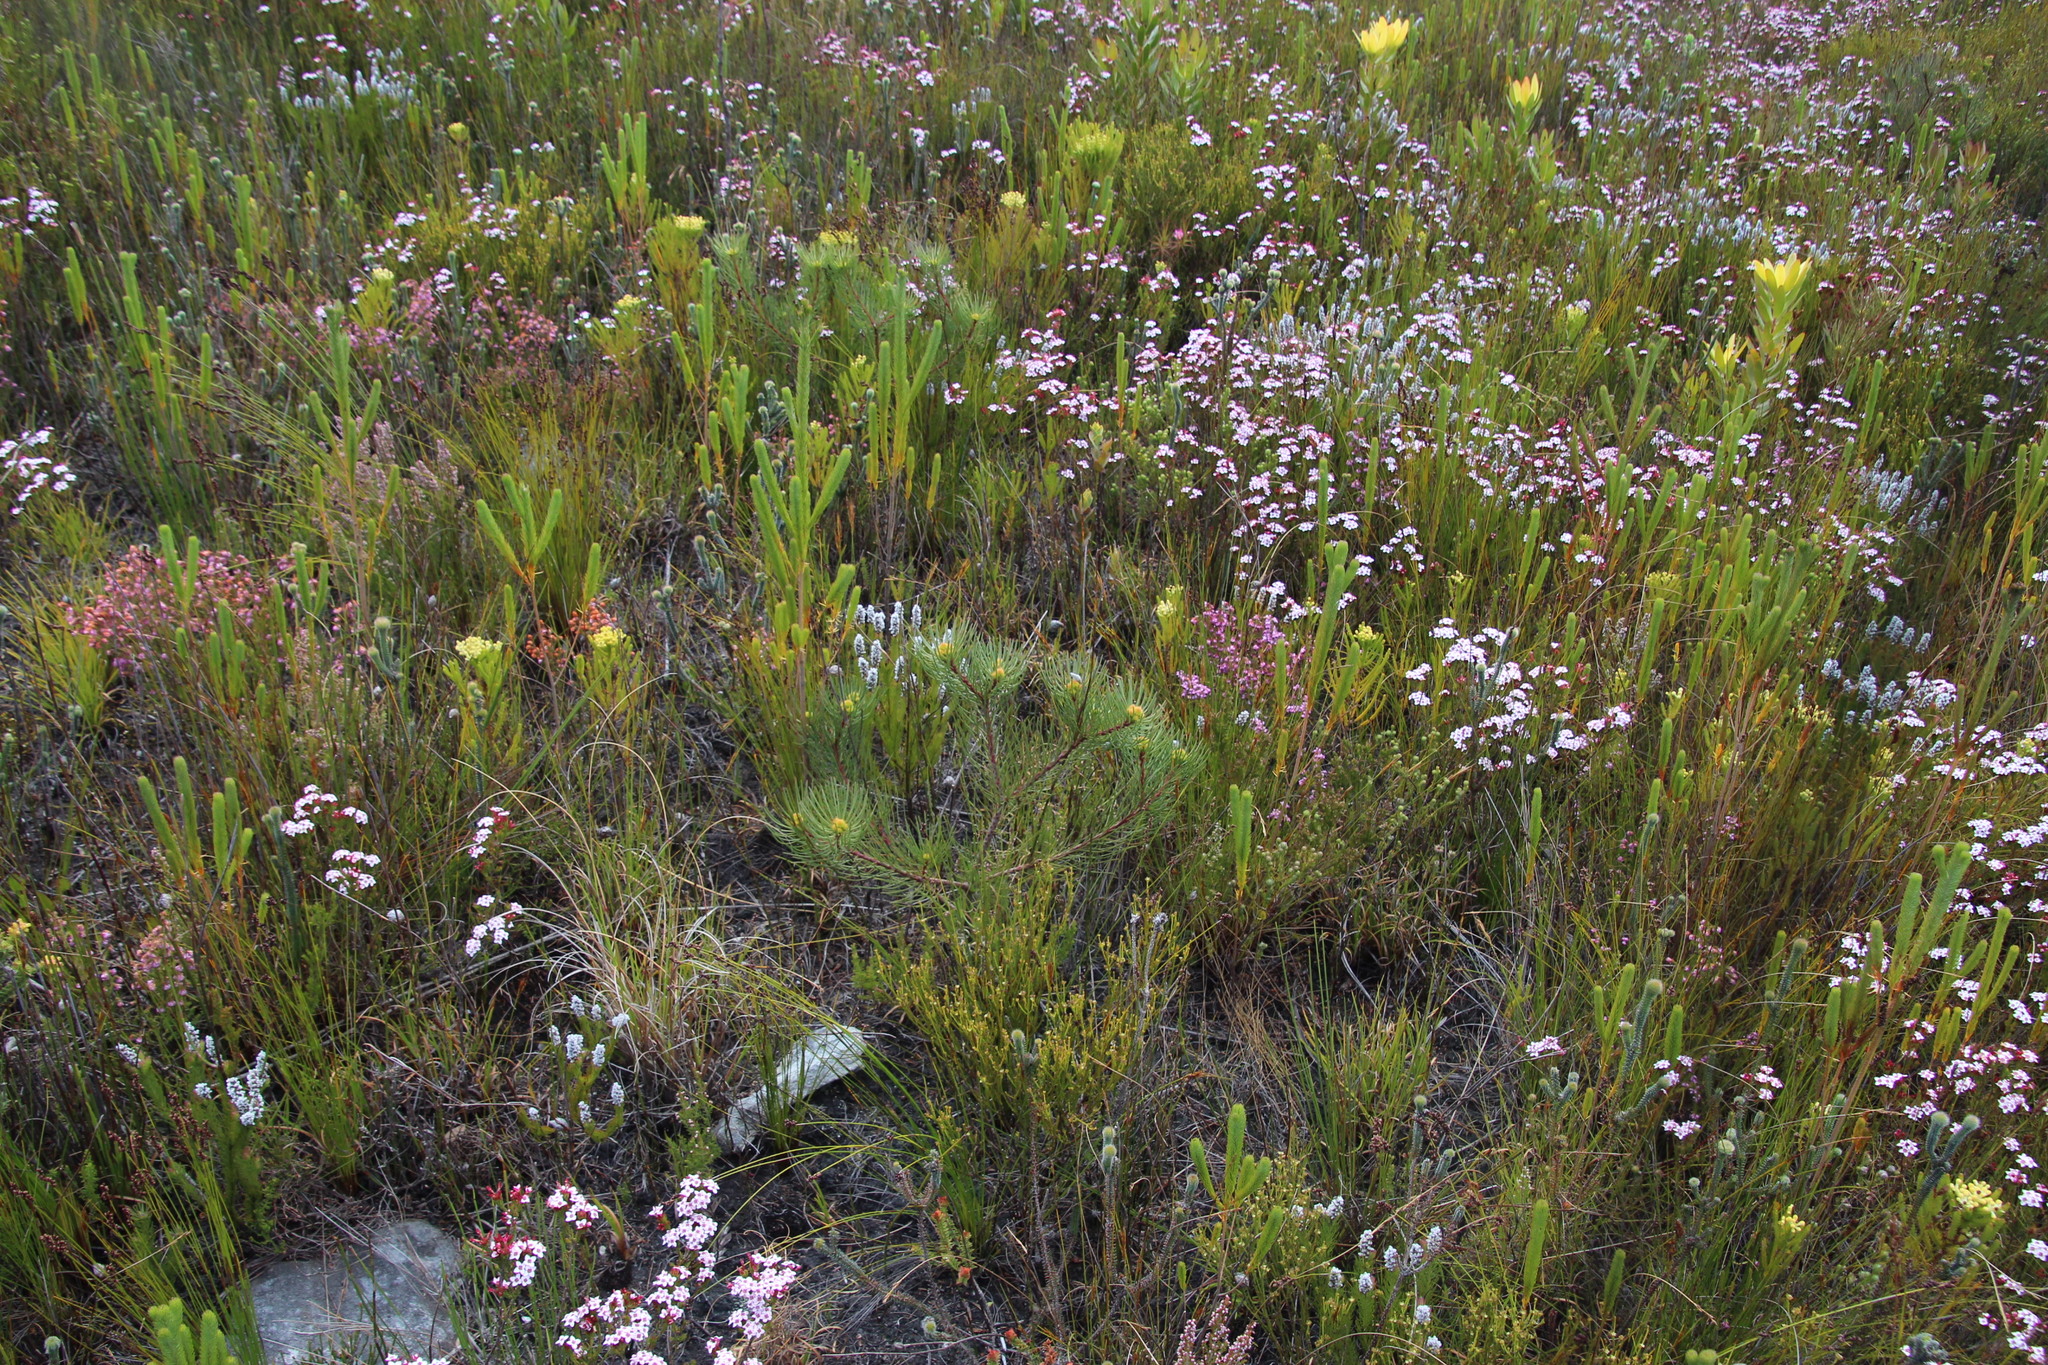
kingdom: Plantae
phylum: Tracheophyta
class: Magnoliopsida
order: Proteales
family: Proteaceae
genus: Aulax
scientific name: Aulax cancellata
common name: Channel-leaf featherbush
